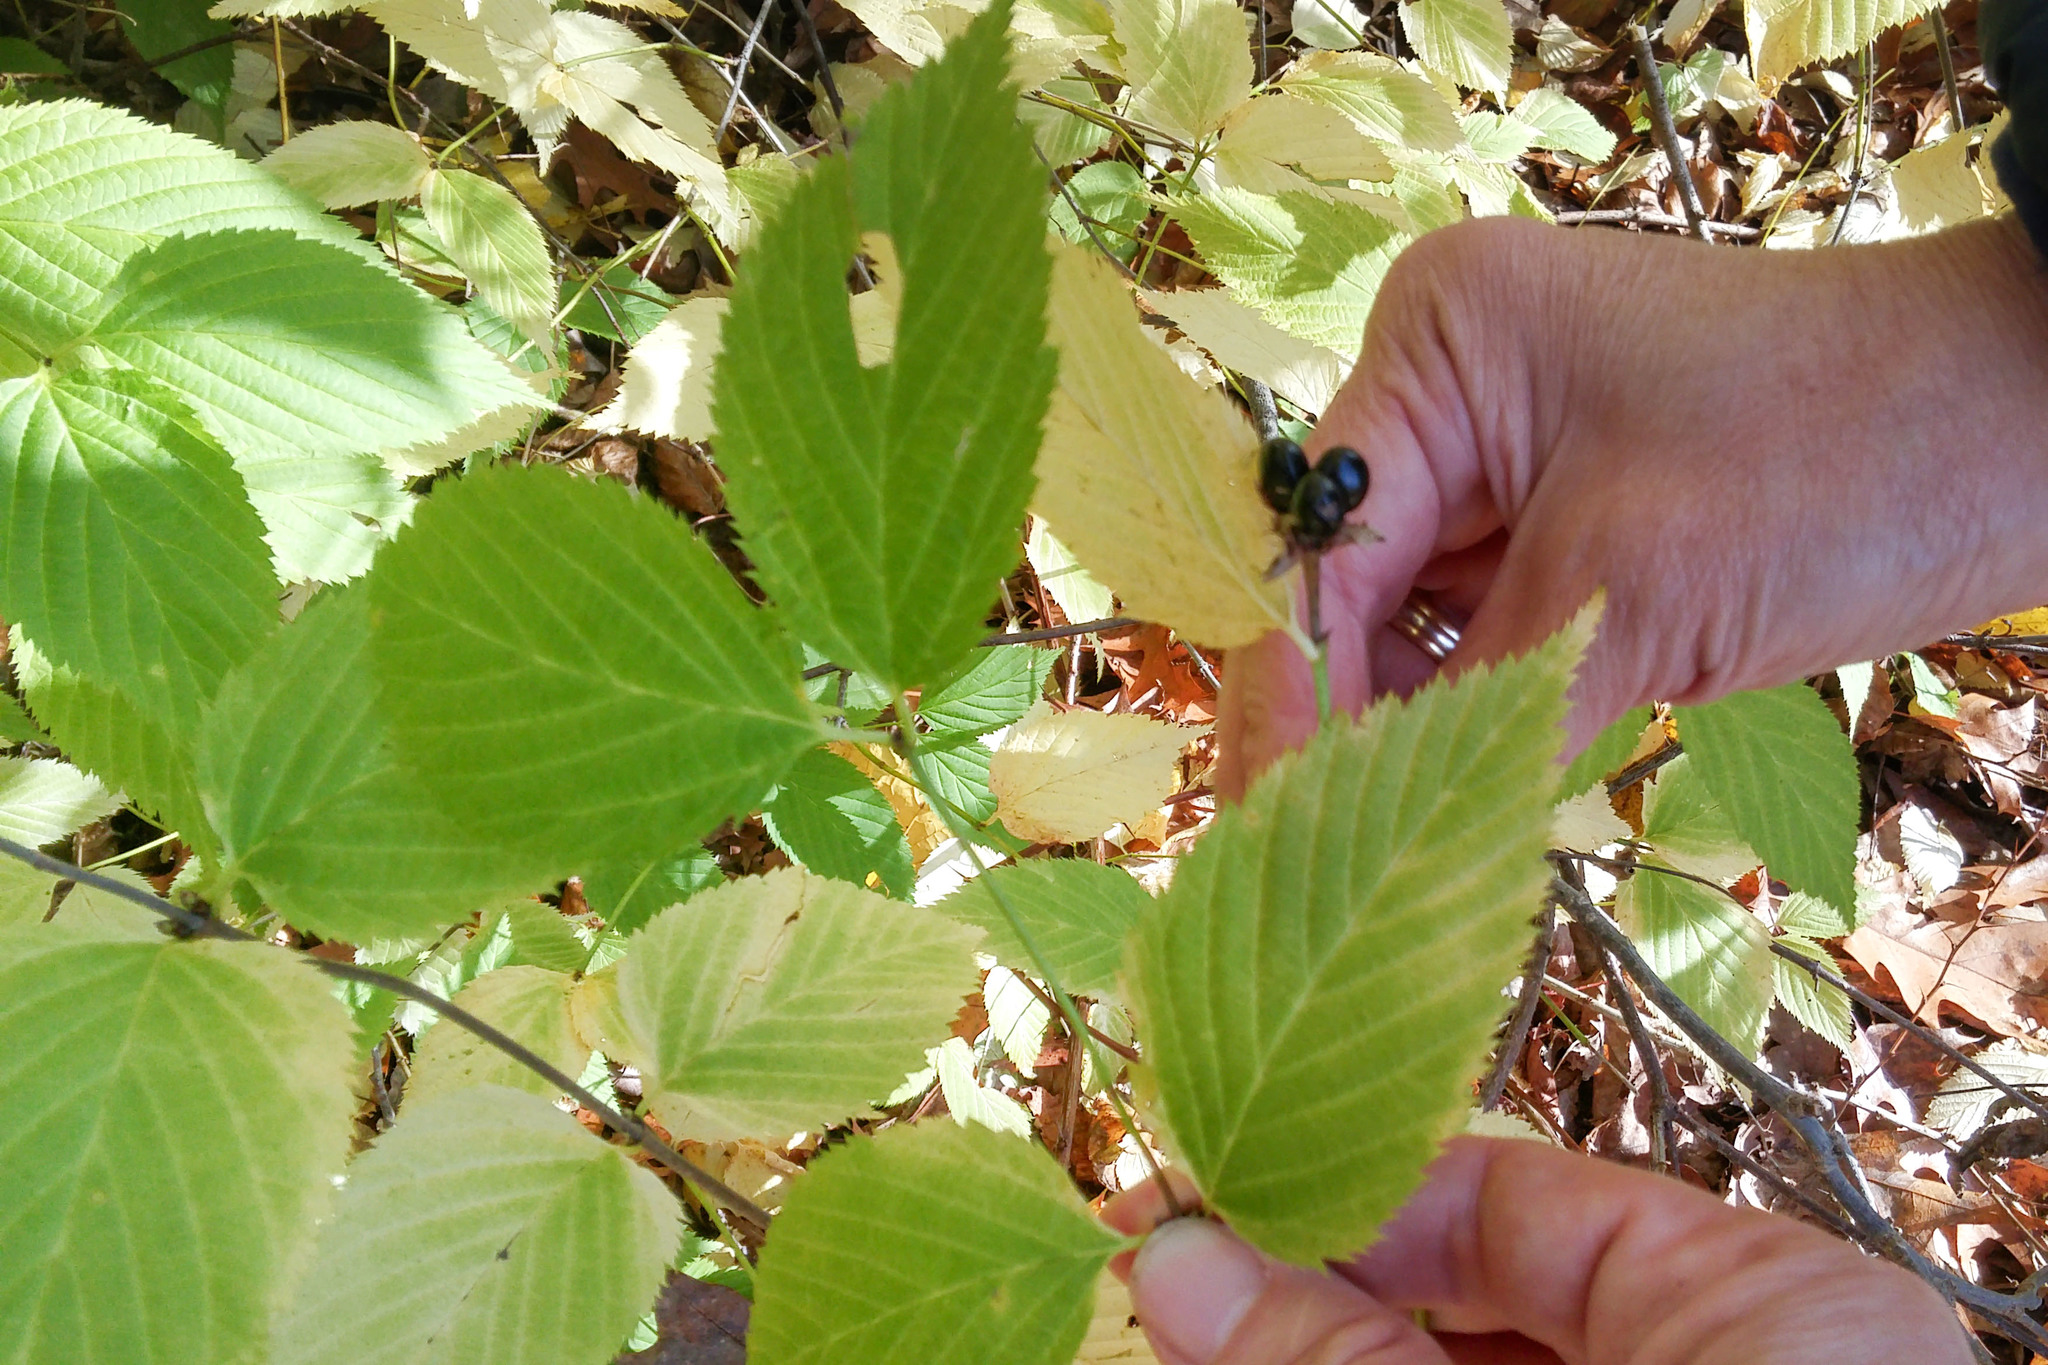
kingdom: Plantae
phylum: Tracheophyta
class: Magnoliopsida
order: Rosales
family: Rosaceae
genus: Rhodotypos
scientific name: Rhodotypos scandens
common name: Jetbead
